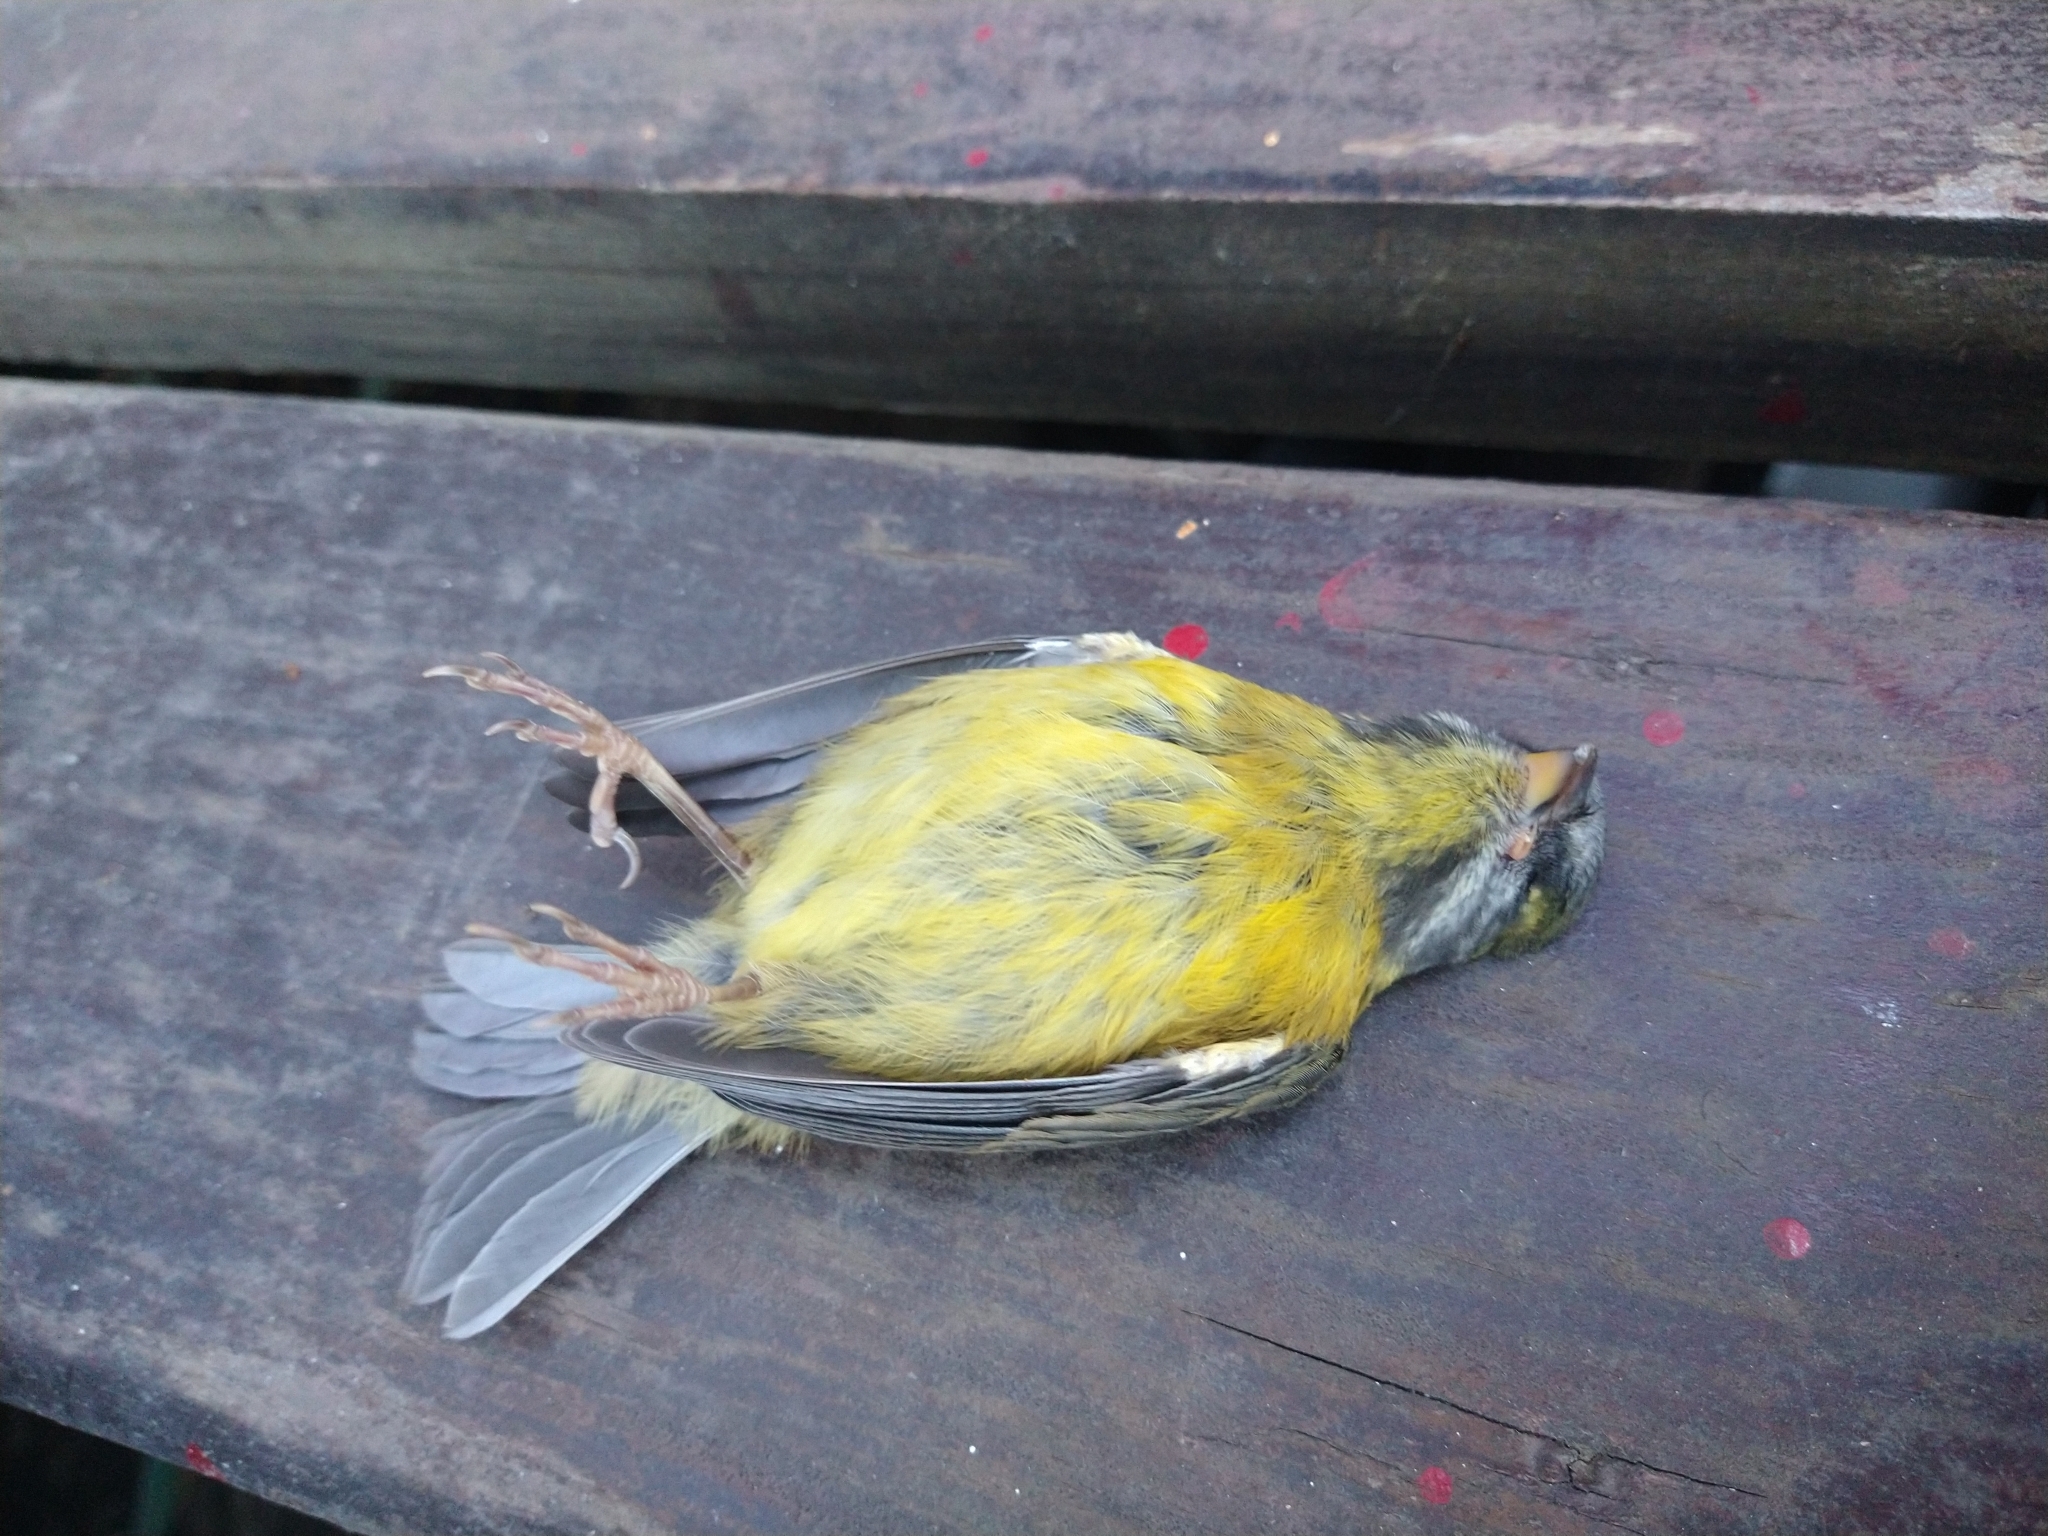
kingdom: Animalia
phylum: Chordata
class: Aves
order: Passeriformes
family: Thraupidae
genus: Phrygilus
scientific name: Phrygilus patagonicus
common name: Patagonian sierra finch
